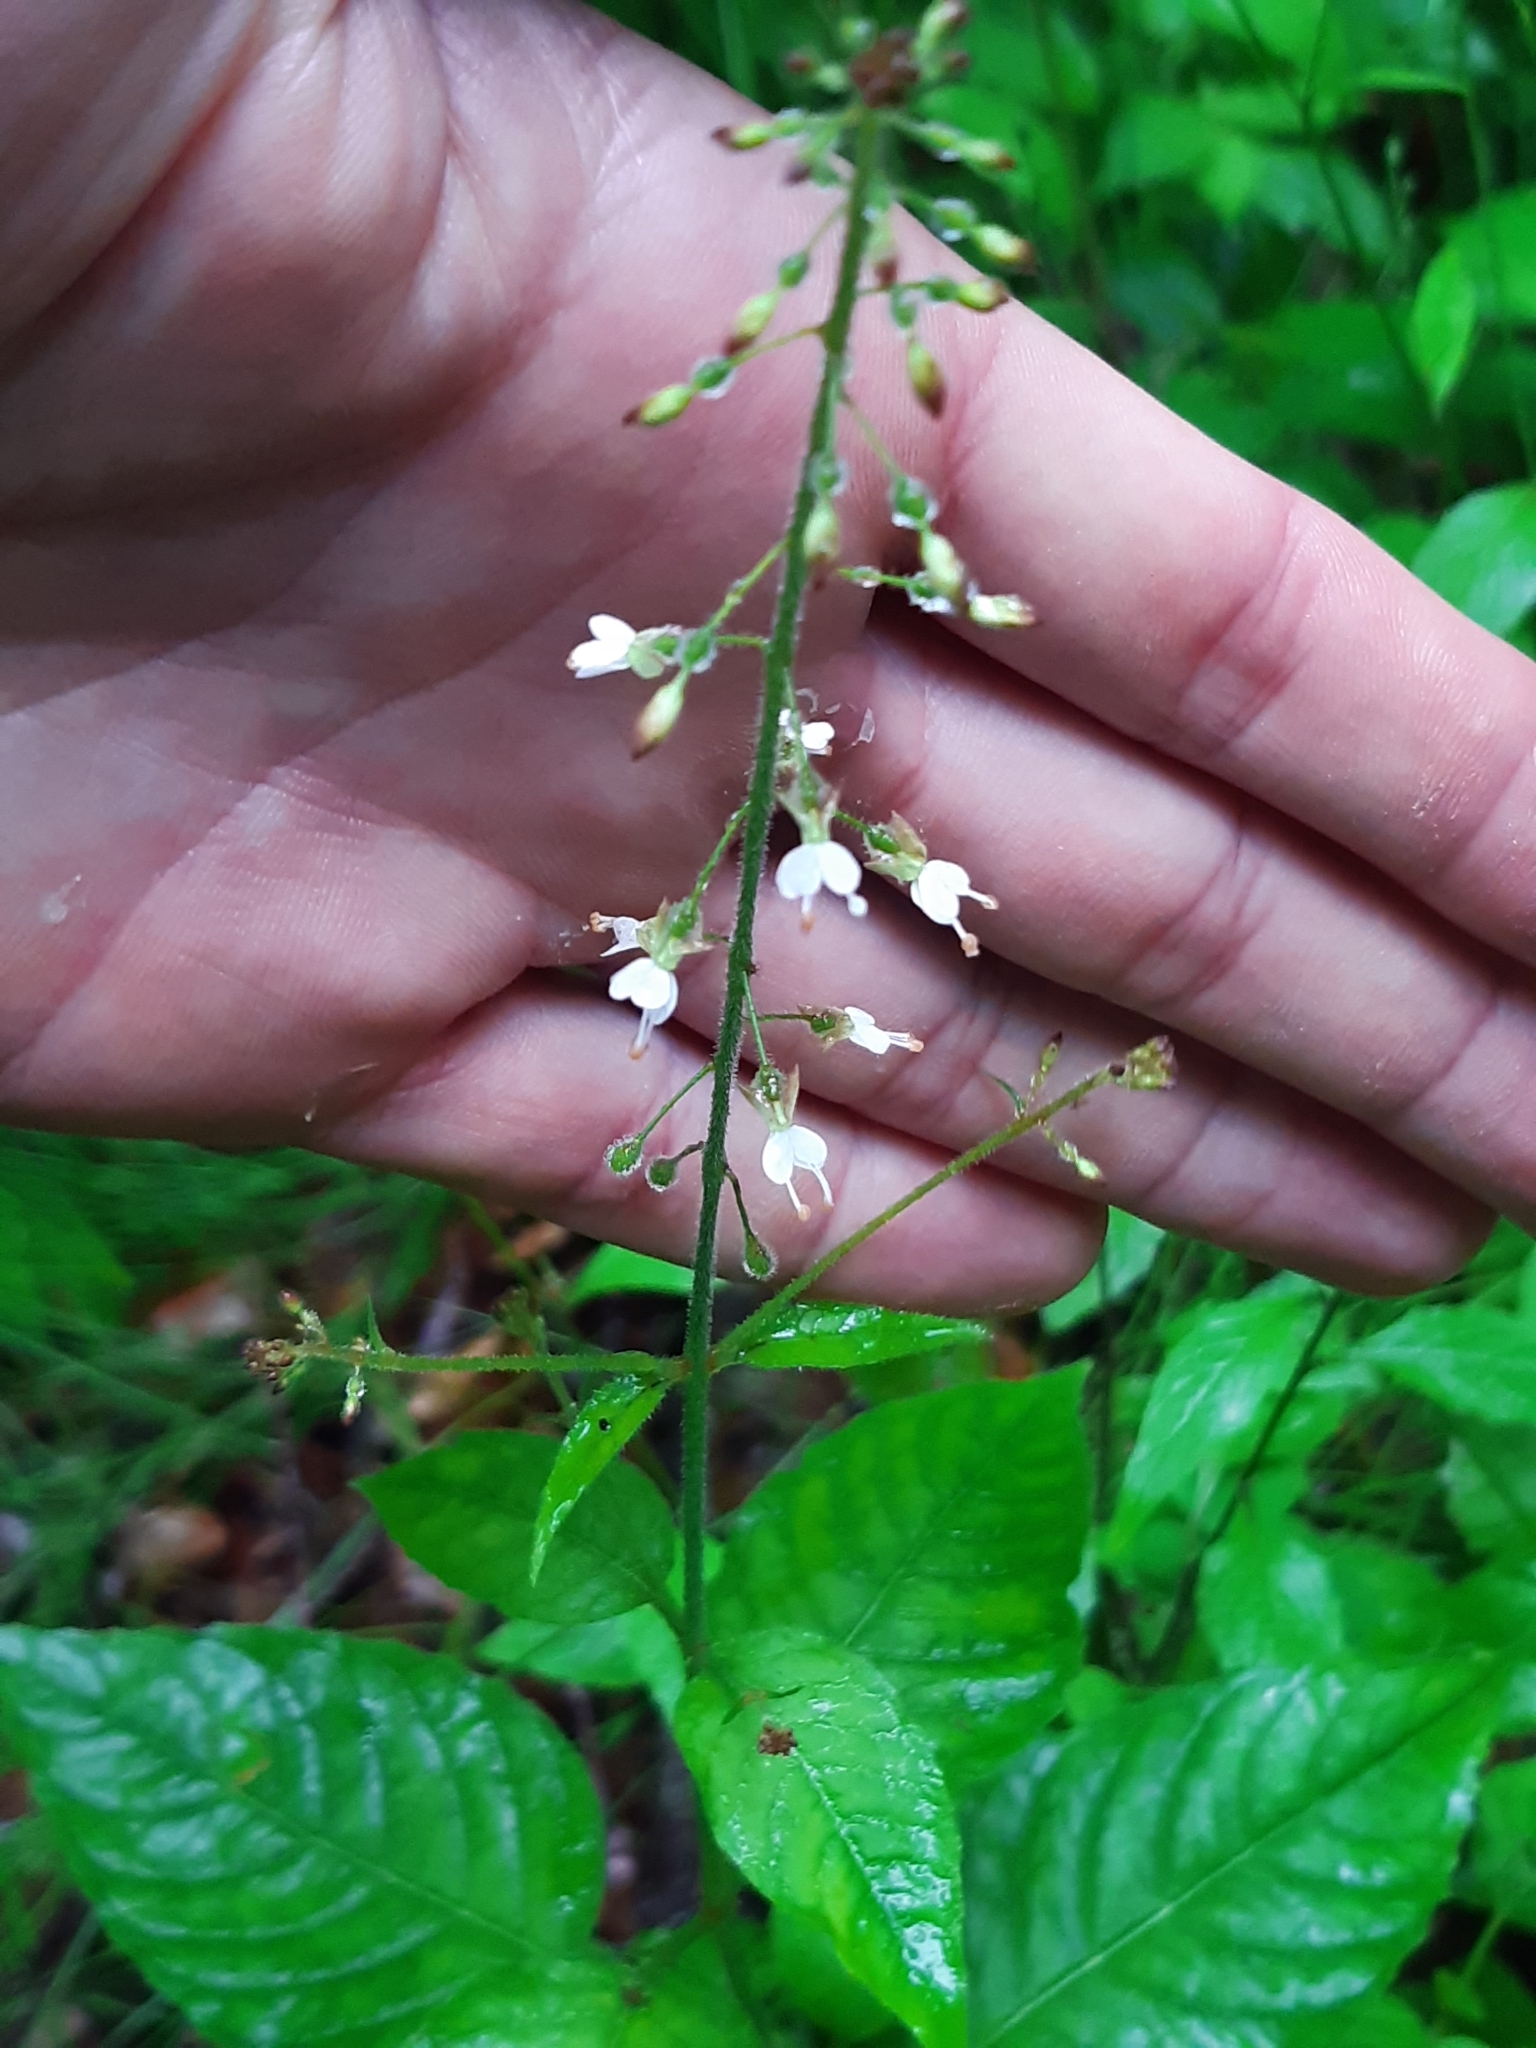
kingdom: Plantae
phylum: Tracheophyta
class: Magnoliopsida
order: Myrtales
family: Onagraceae
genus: Circaea
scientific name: Circaea lutetiana
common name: Enchanter's-nightshade
